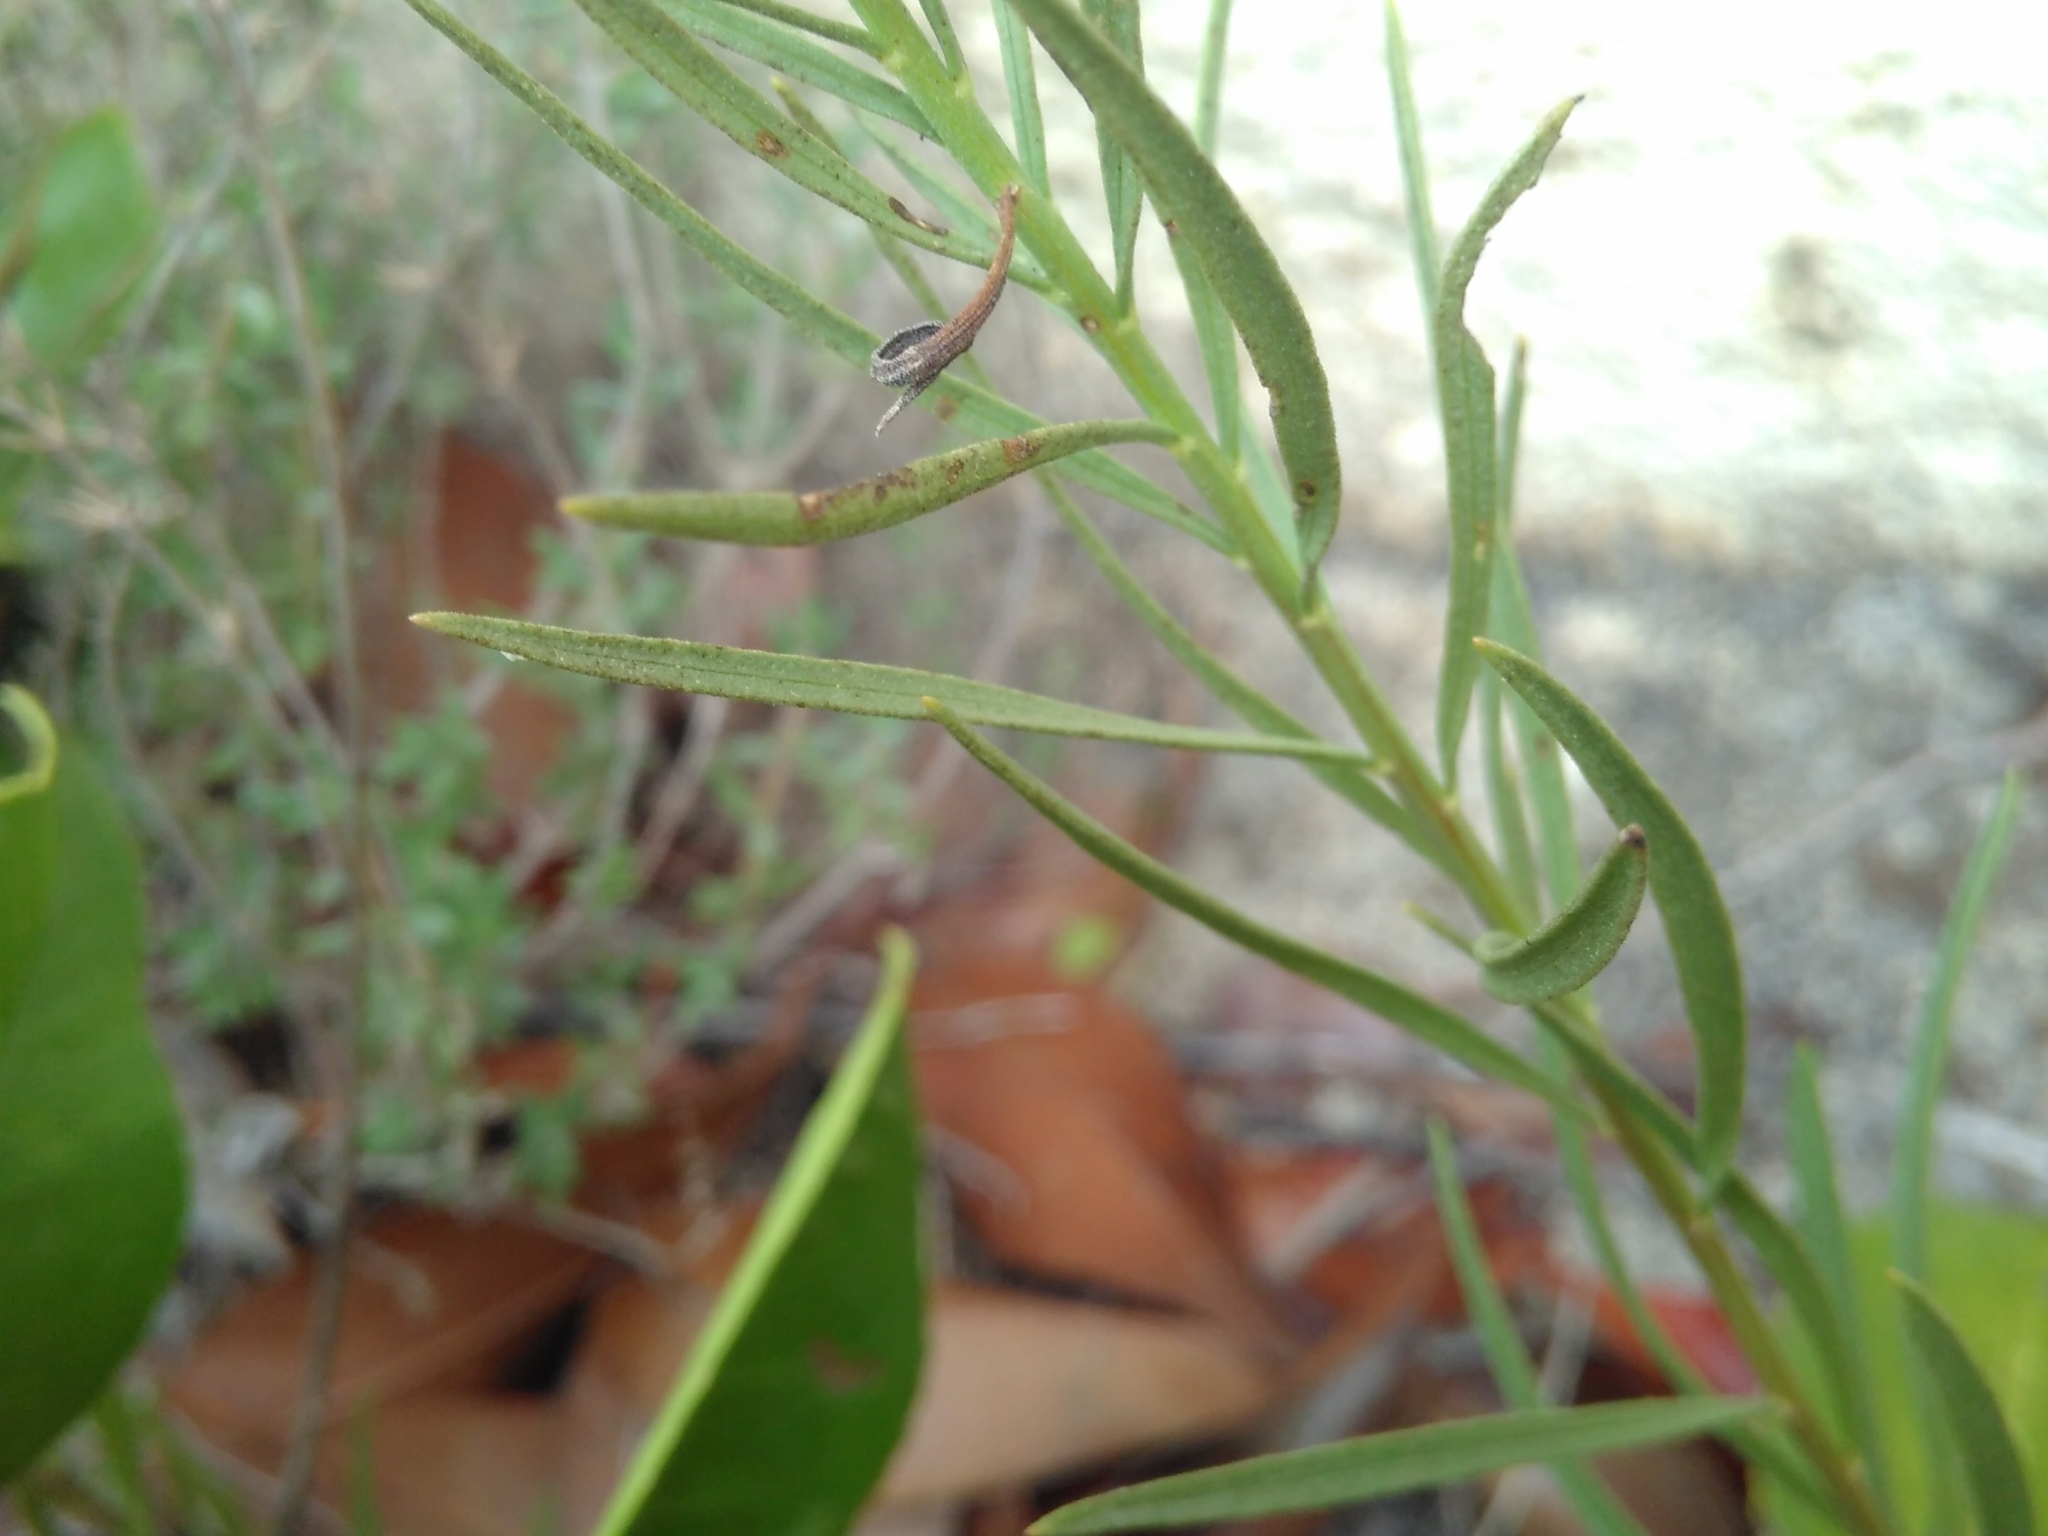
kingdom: Plantae
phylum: Tracheophyta
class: Magnoliopsida
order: Asterales
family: Asteraceae
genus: Galatella
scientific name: Galatella linosyris
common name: Goldilocks aster
